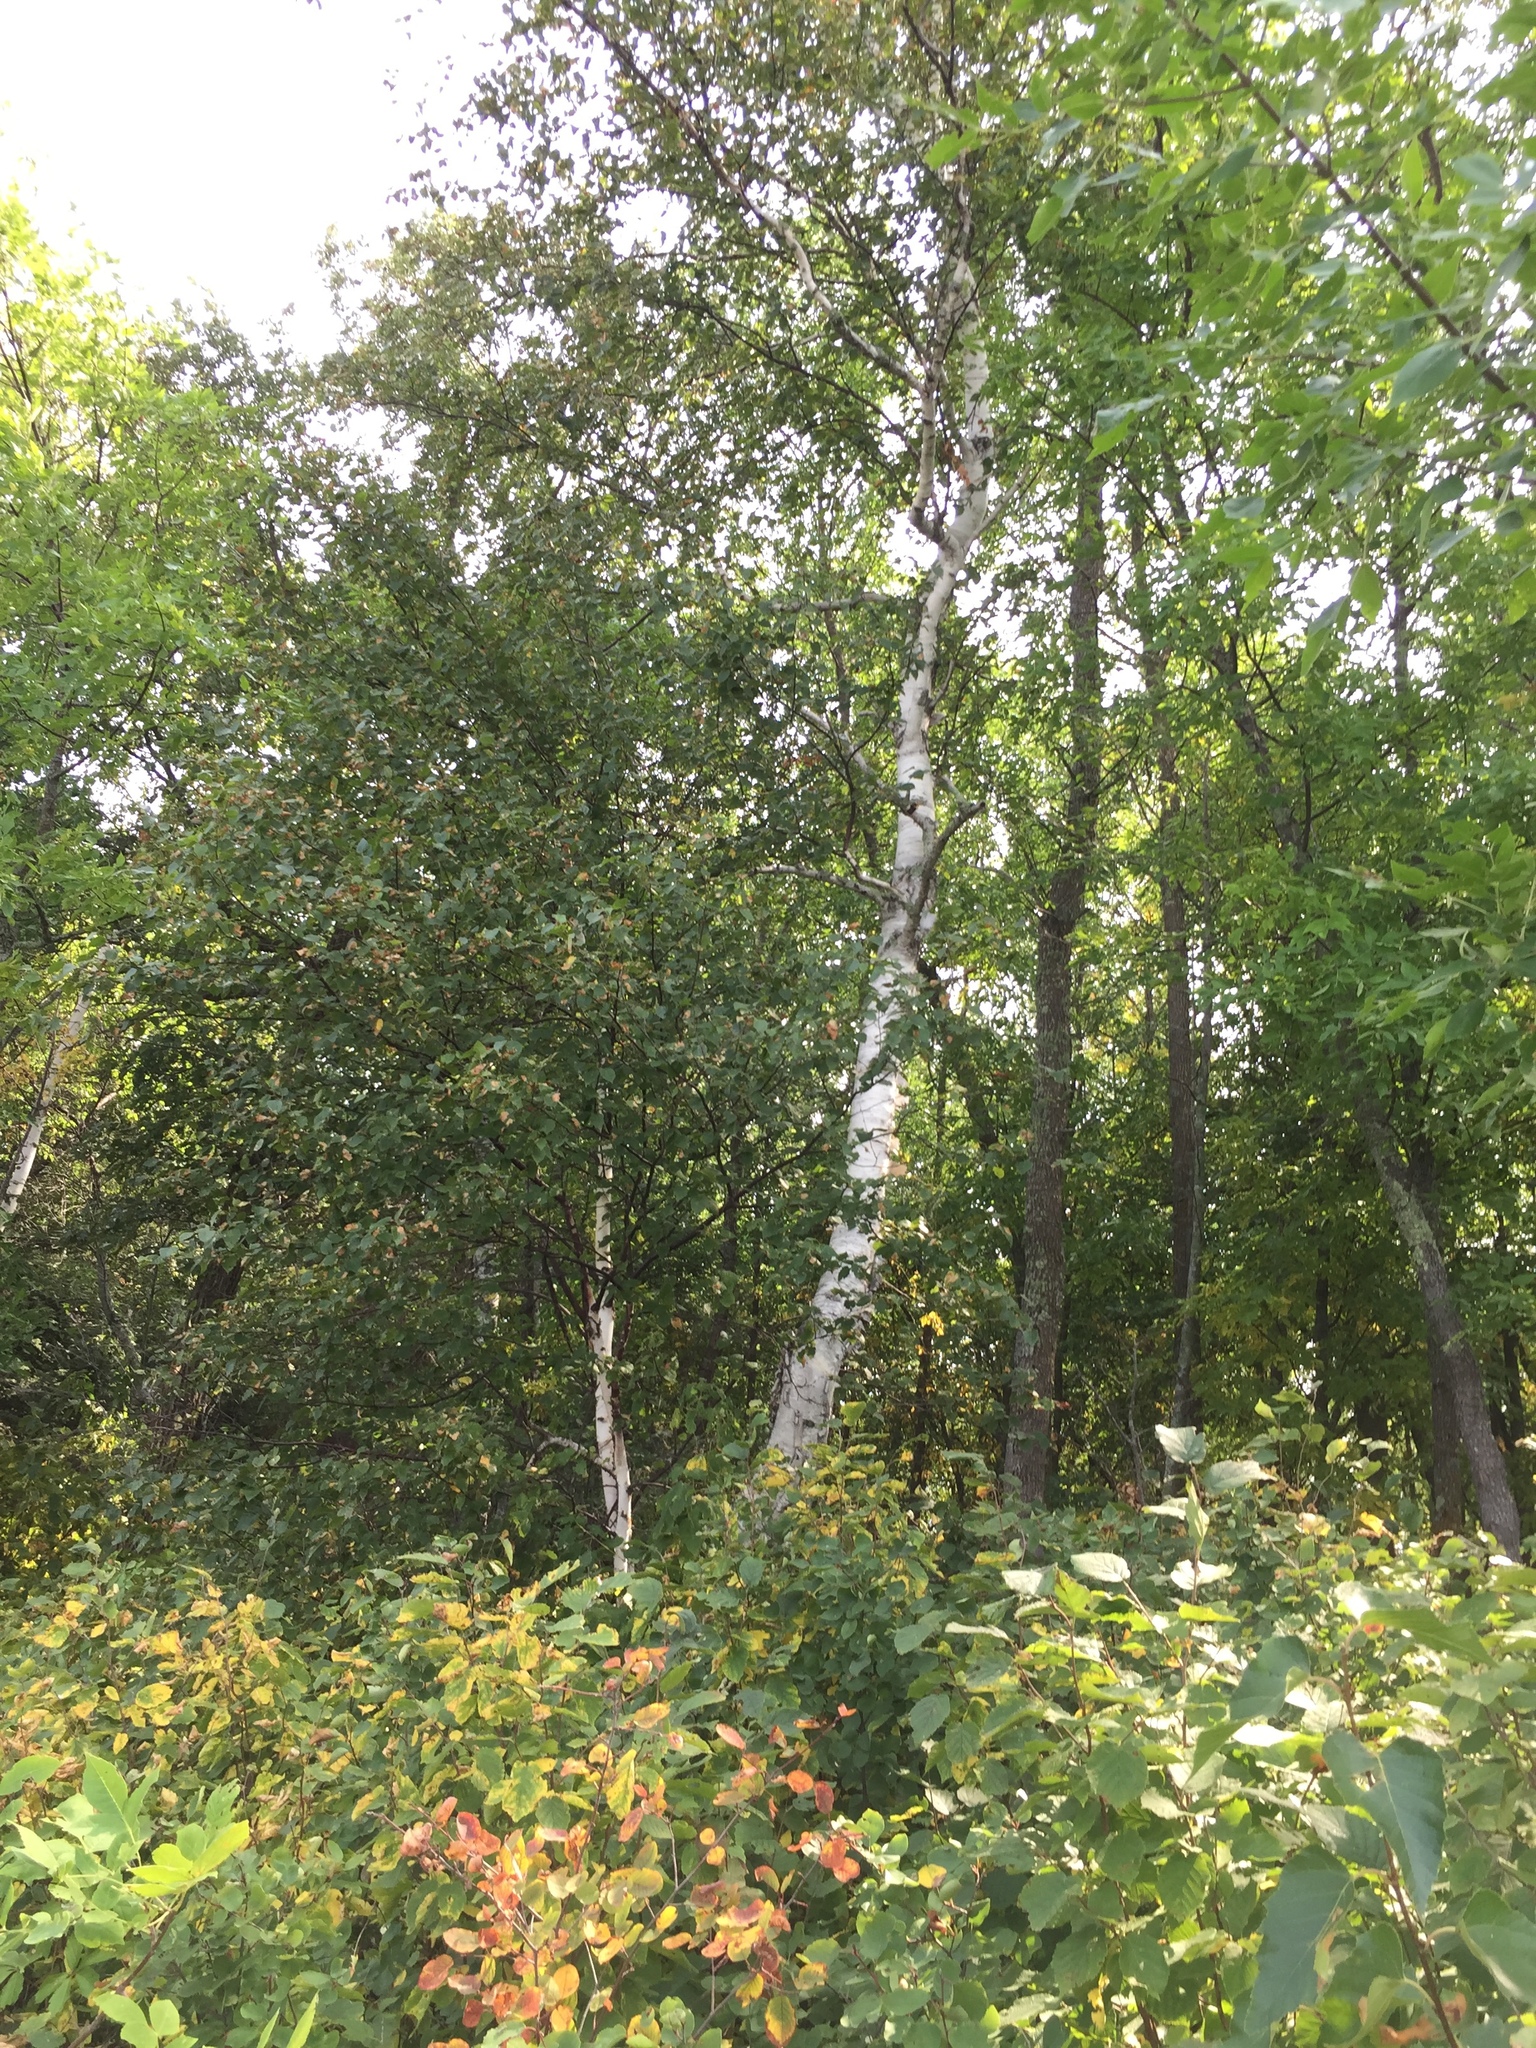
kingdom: Plantae
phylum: Tracheophyta
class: Magnoliopsida
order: Fagales
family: Betulaceae
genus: Betula
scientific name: Betula papyrifera
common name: Paper birch
